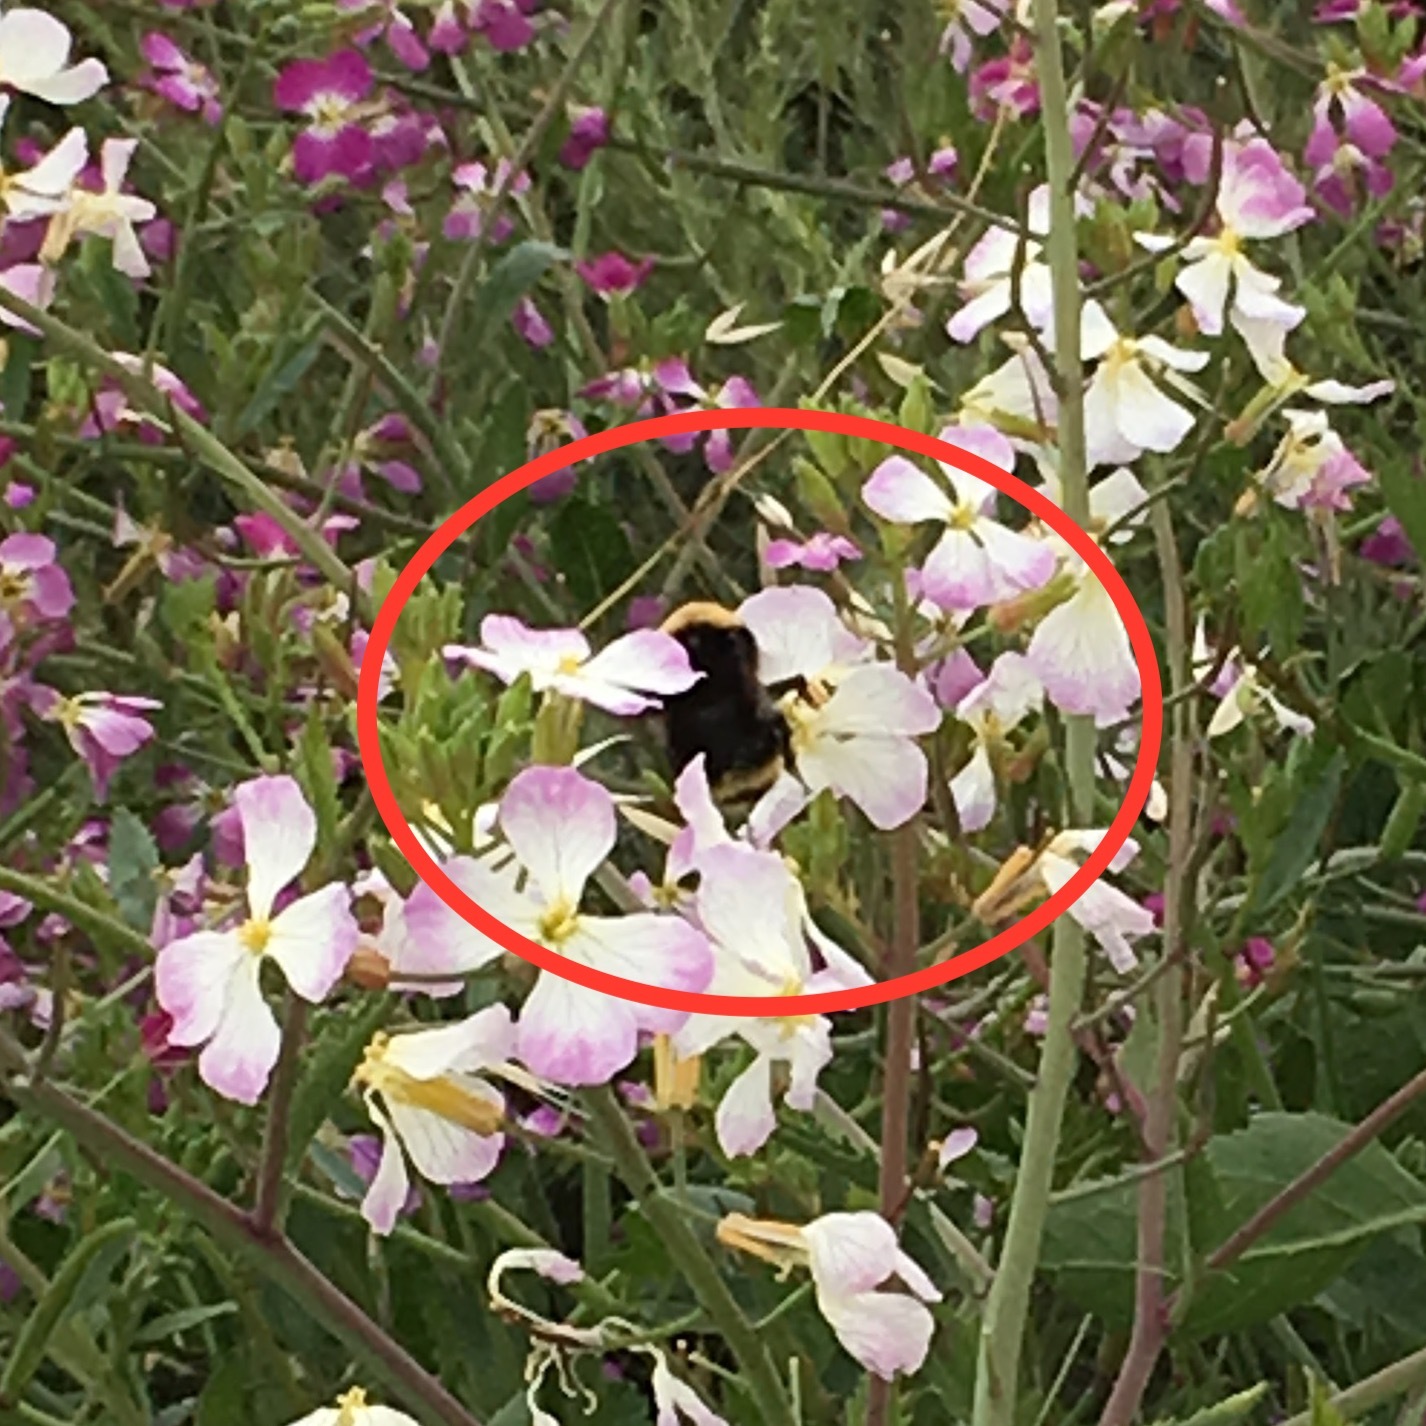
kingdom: Animalia
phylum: Arthropoda
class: Insecta
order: Hymenoptera
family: Apidae
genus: Bombus
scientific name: Bombus californicus
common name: California bumble bee
